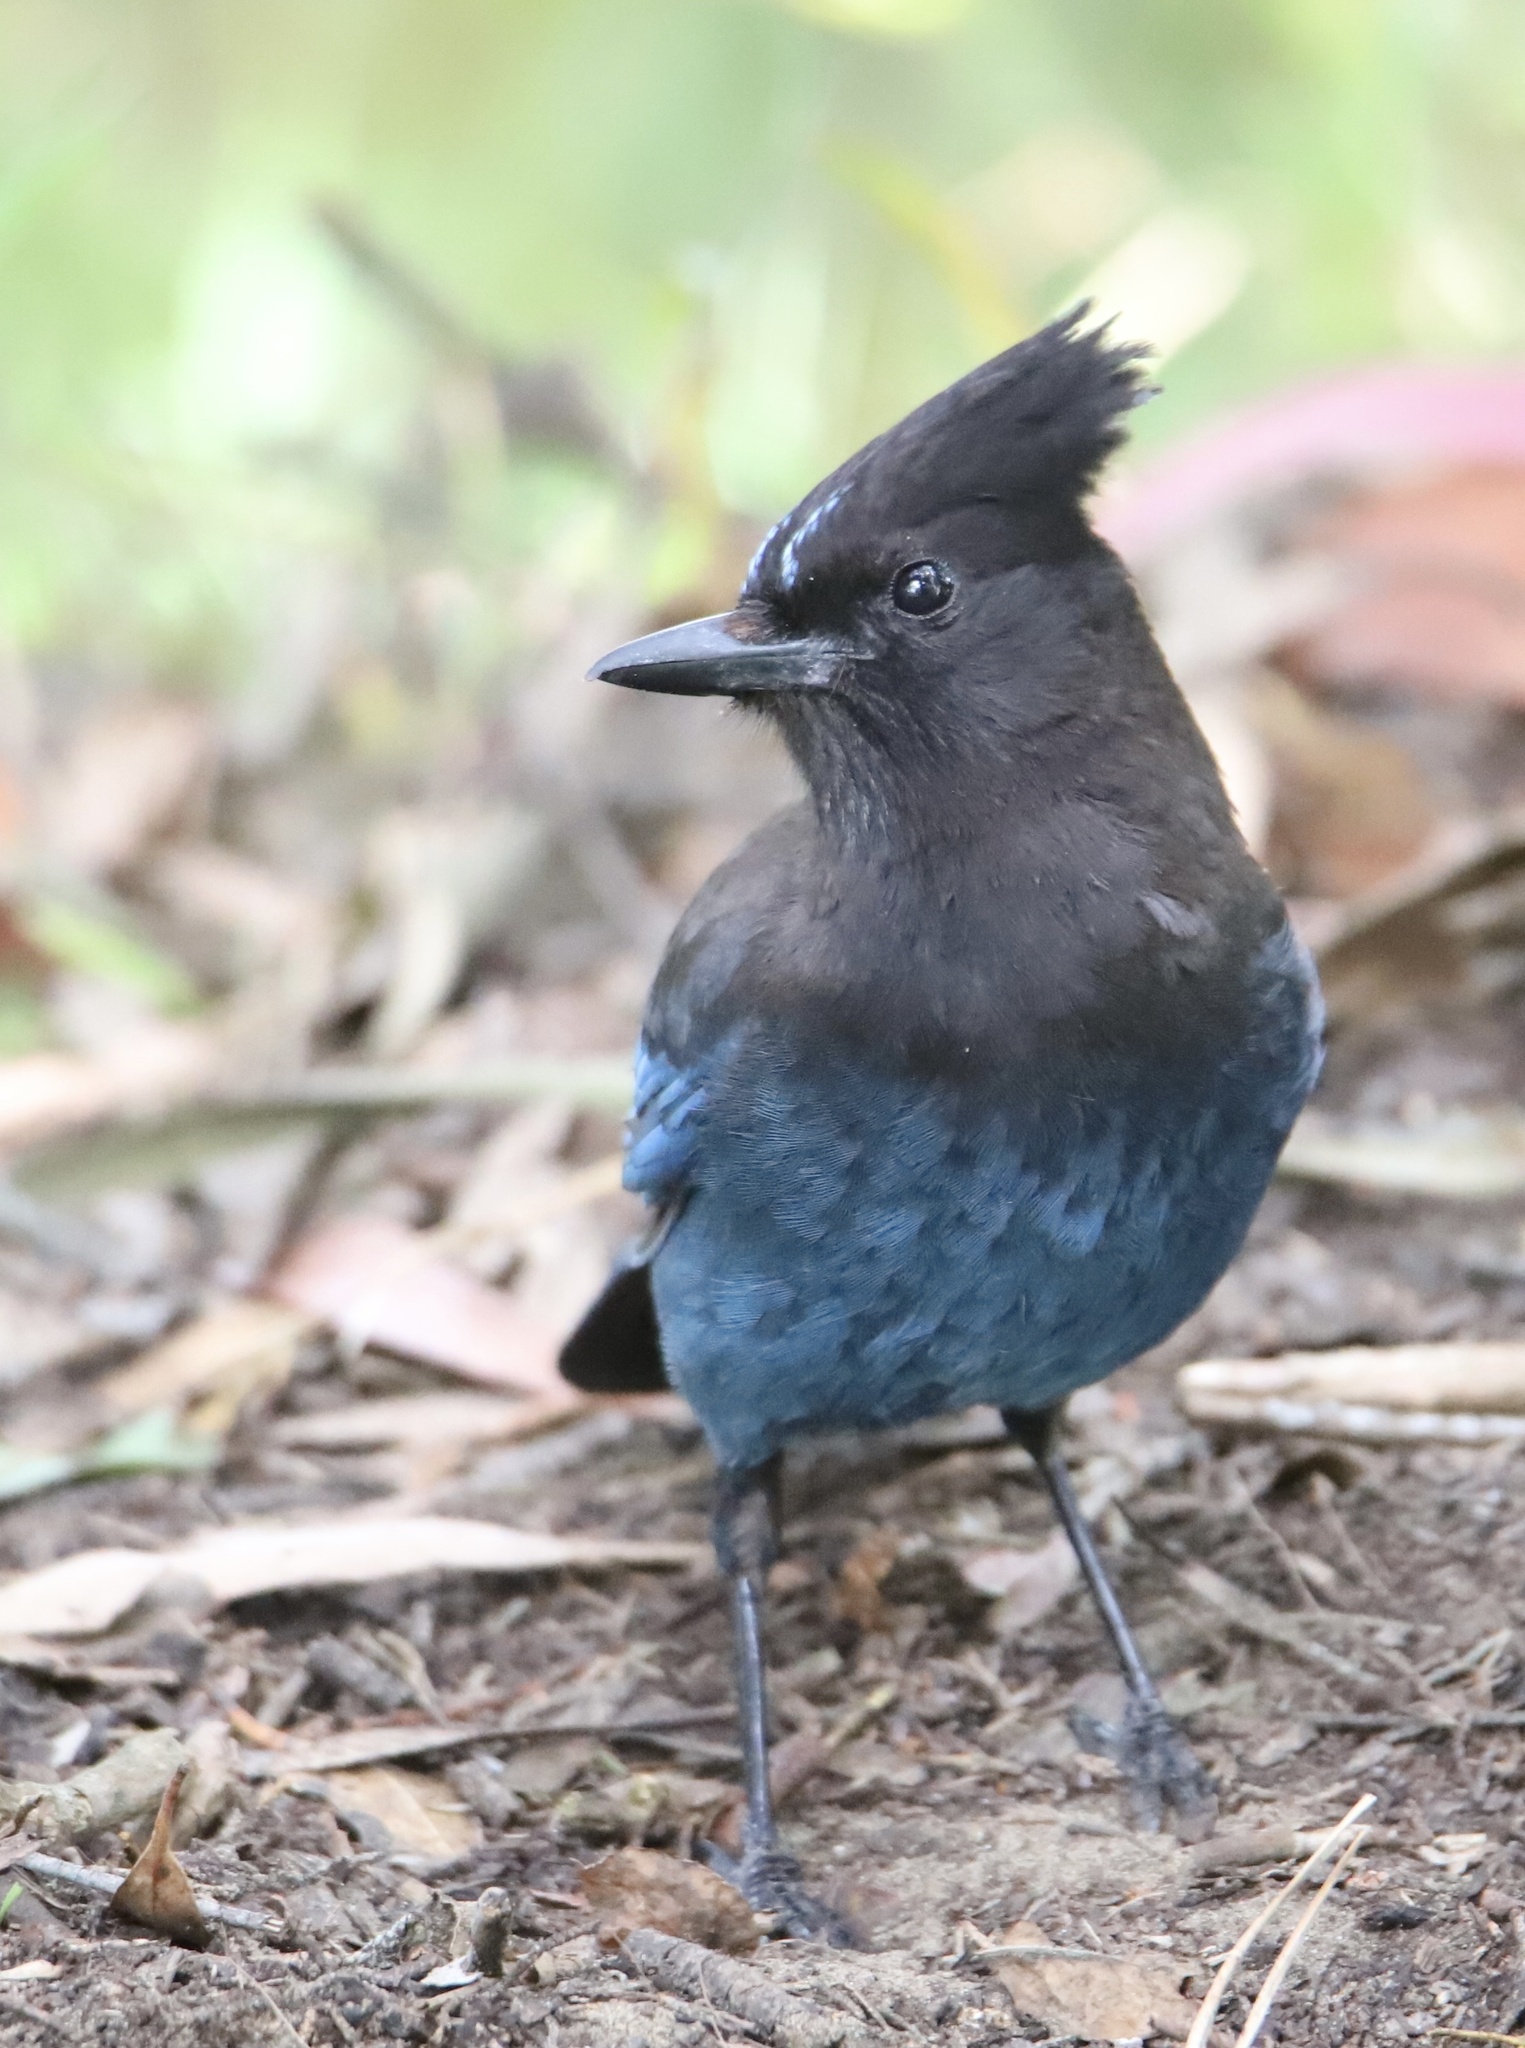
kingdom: Animalia
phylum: Chordata
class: Aves
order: Passeriformes
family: Corvidae
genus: Cyanocitta
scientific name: Cyanocitta stelleri
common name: Steller's jay
